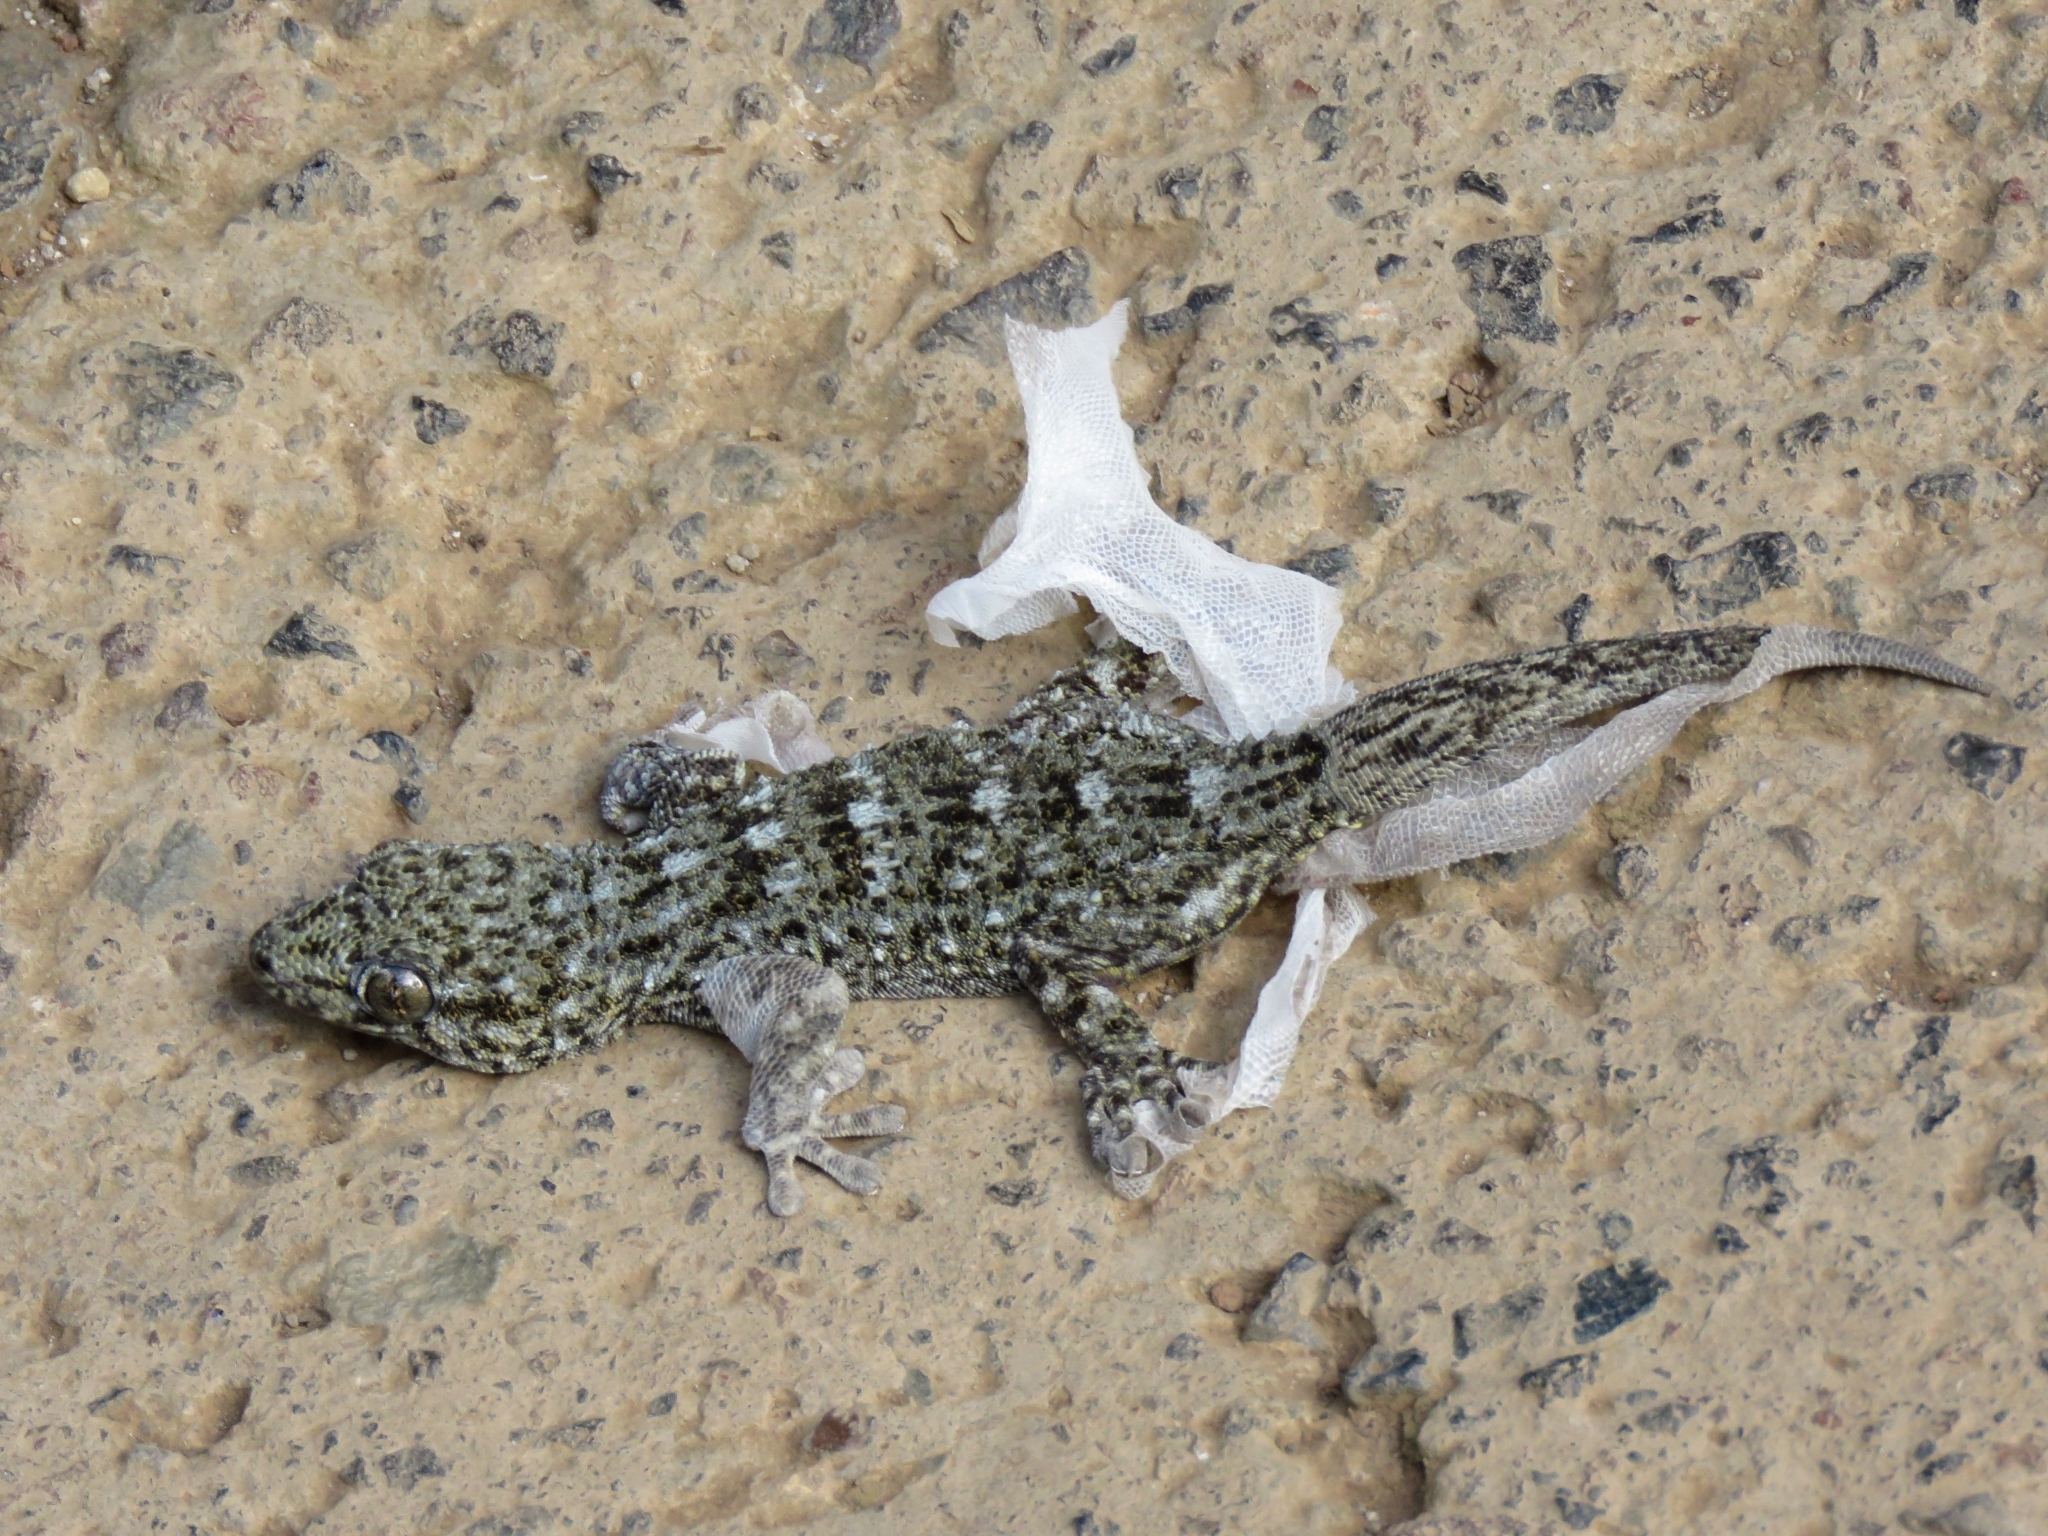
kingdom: Animalia
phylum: Chordata
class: Squamata
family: Phyllodactylidae
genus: Tarentola
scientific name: Tarentola delalandii
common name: Tenerife wall gecko
